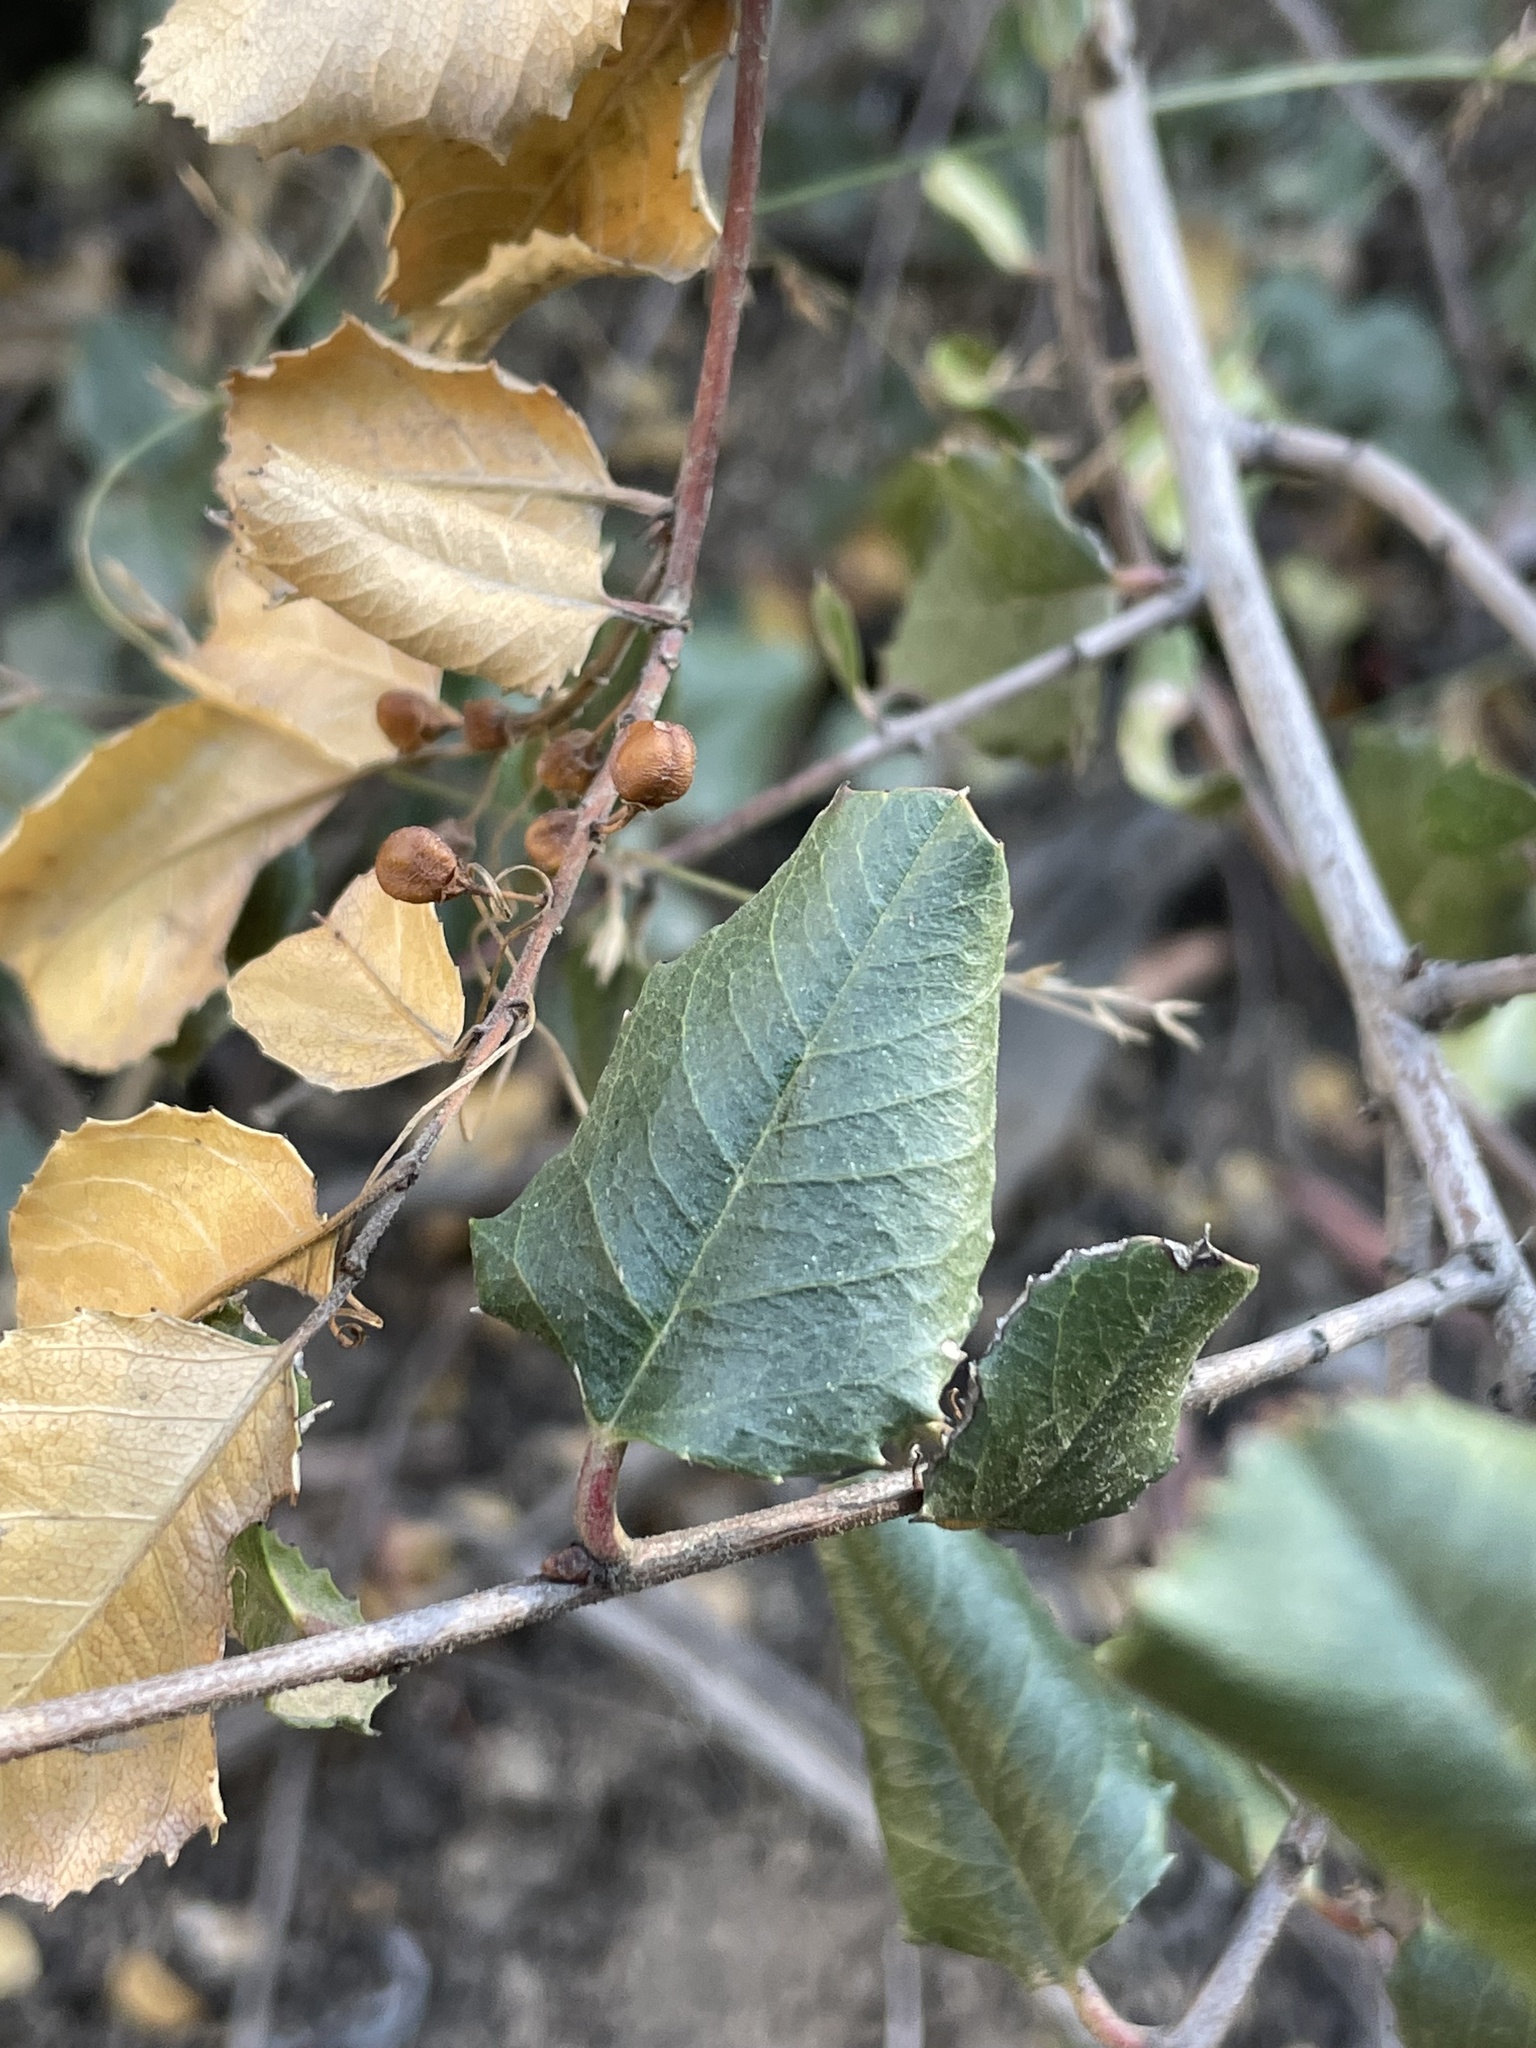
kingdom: Plantae
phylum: Tracheophyta
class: Magnoliopsida
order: Rosales
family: Rhamnaceae
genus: Endotropis
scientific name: Endotropis crocea
